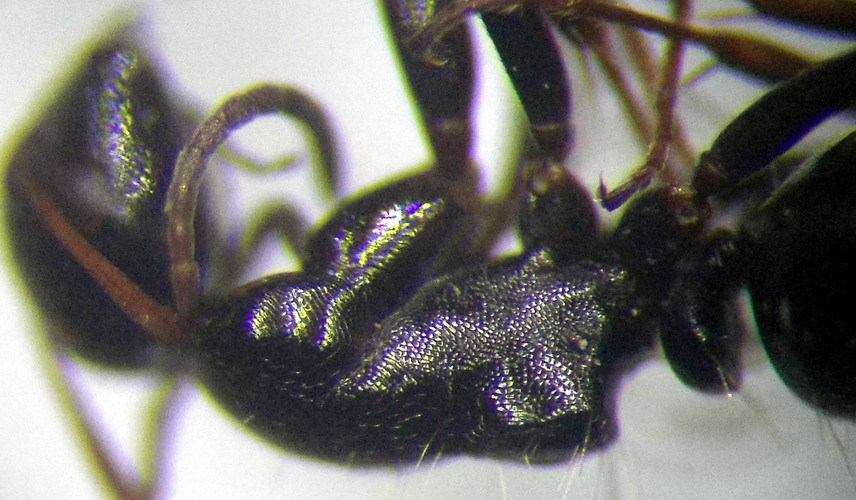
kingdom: Animalia
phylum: Arthropoda
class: Insecta
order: Hymenoptera
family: Formicidae
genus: Camponotus
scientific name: Camponotus piceus
